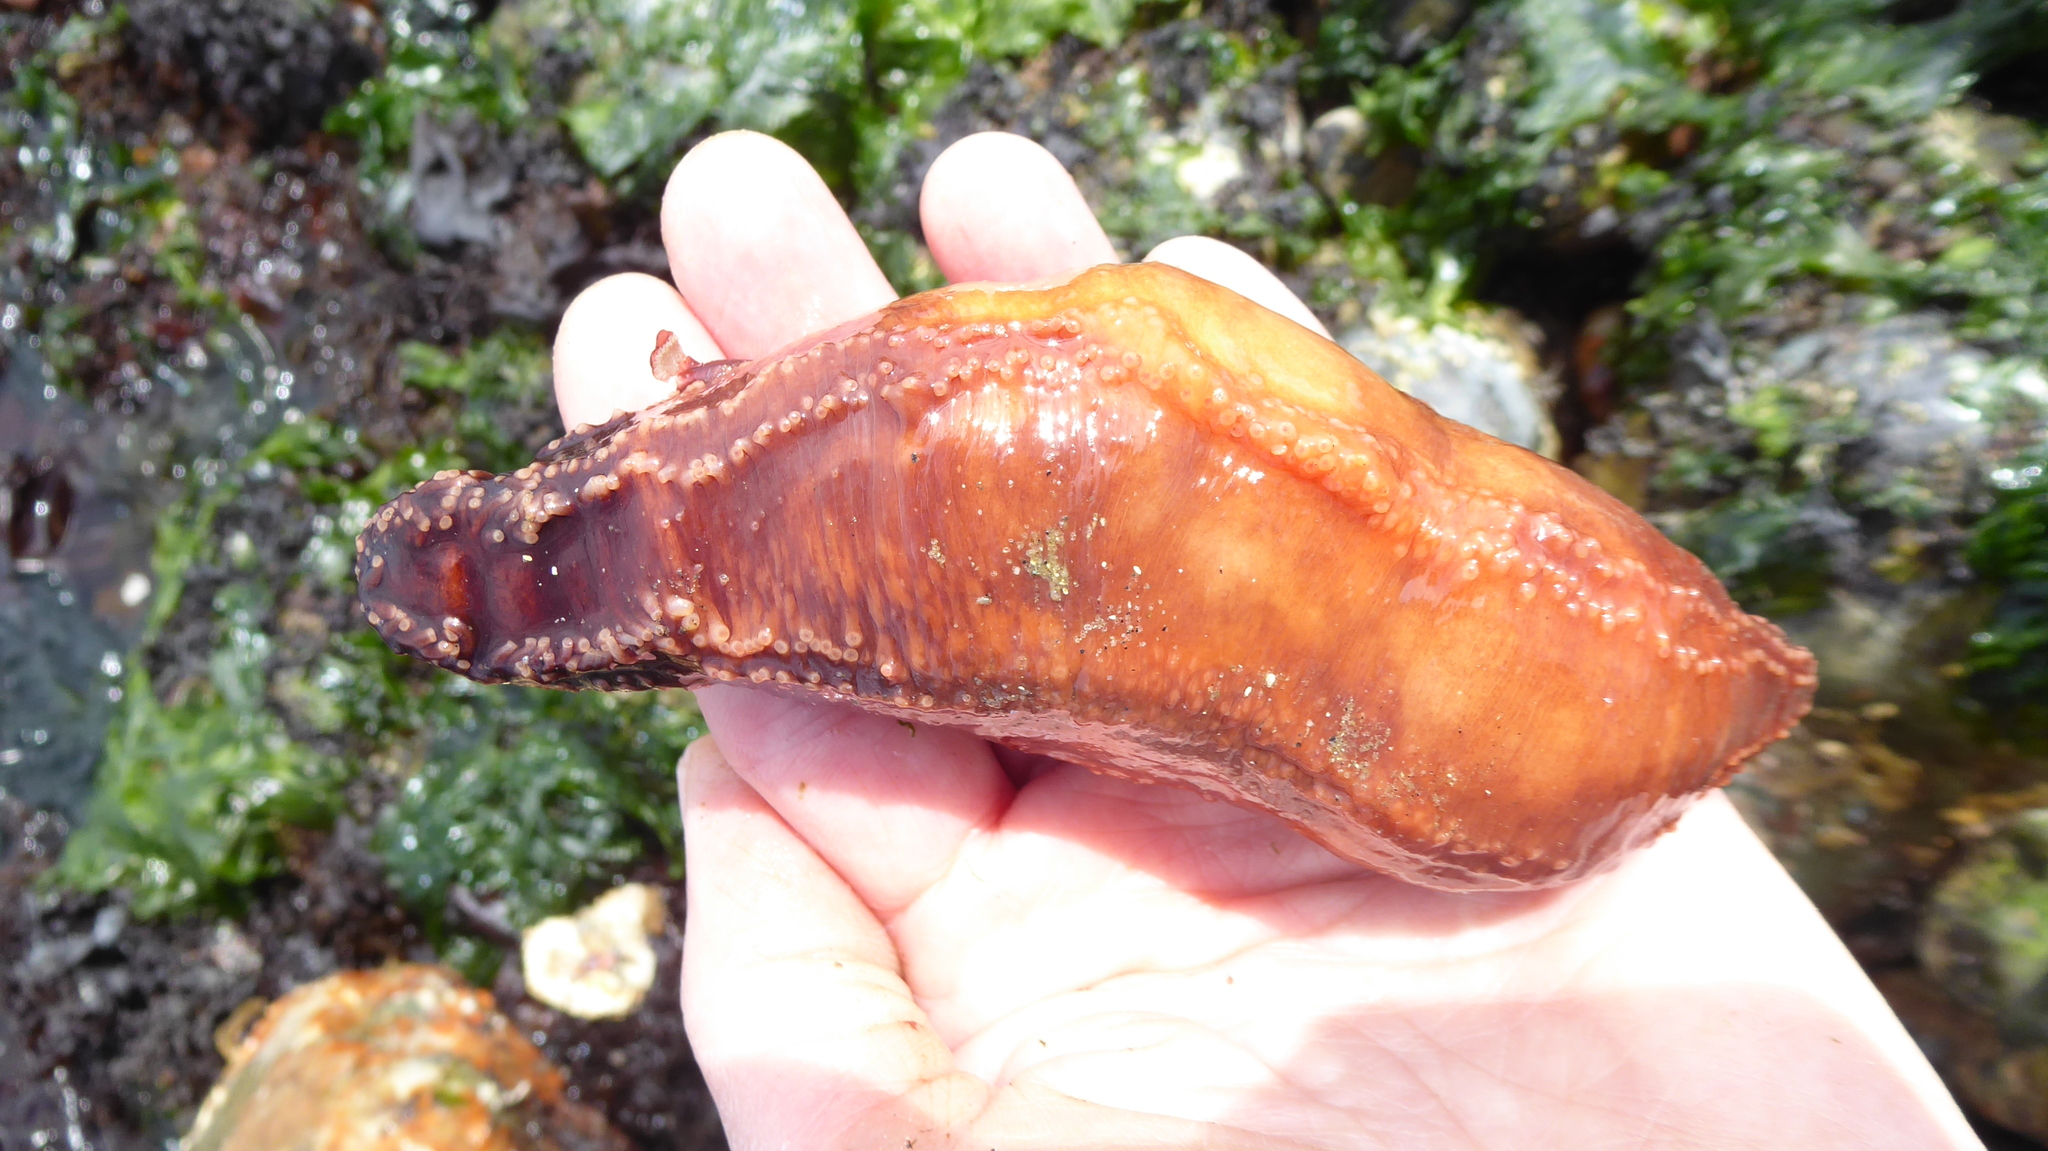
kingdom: Animalia
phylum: Echinodermata
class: Holothuroidea
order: Dendrochirotida
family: Cucumariidae
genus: Cucumaria
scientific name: Cucumaria miniata
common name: Orange sea cucumber
